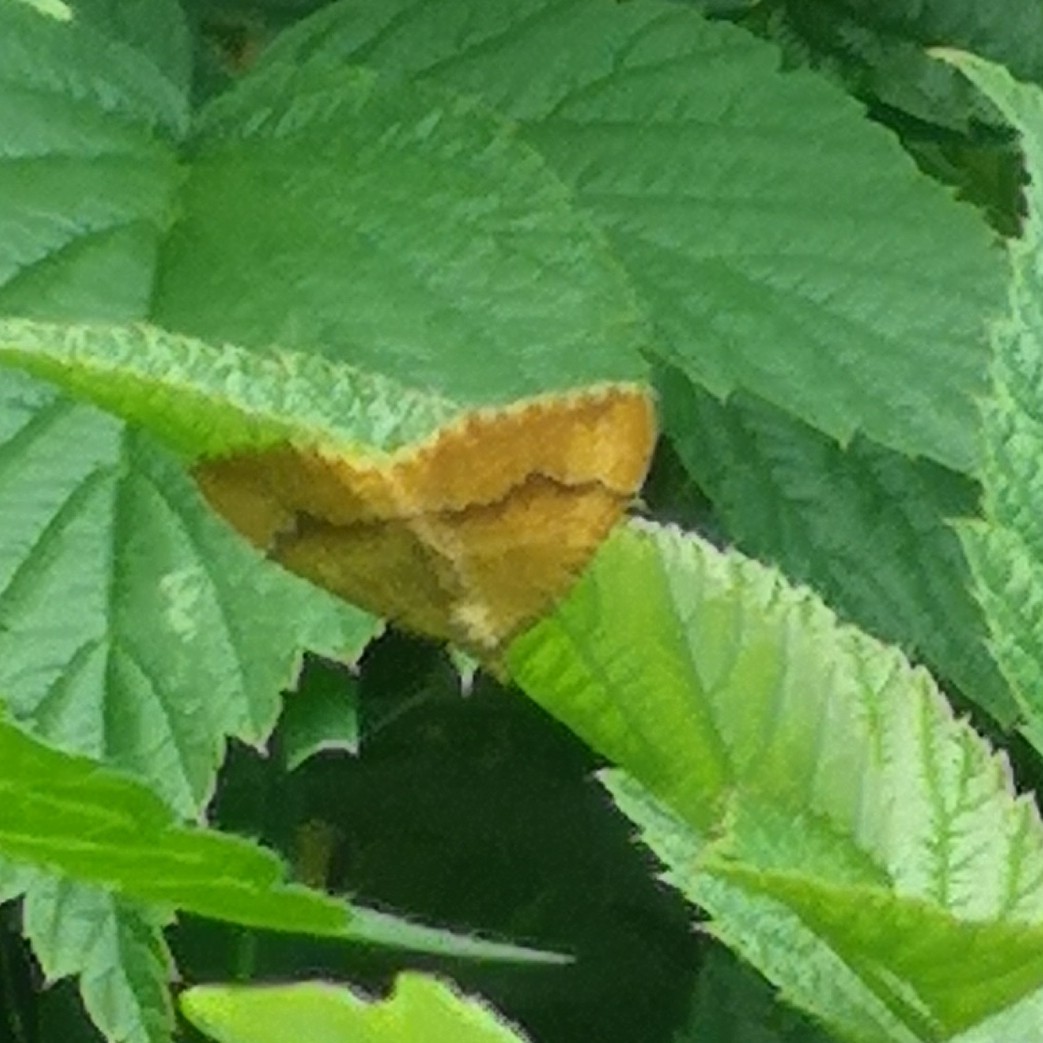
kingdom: Animalia
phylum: Arthropoda
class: Insecta
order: Lepidoptera
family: Geometridae
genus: Camptogramma
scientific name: Camptogramma bilineata
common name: Yellow shell
